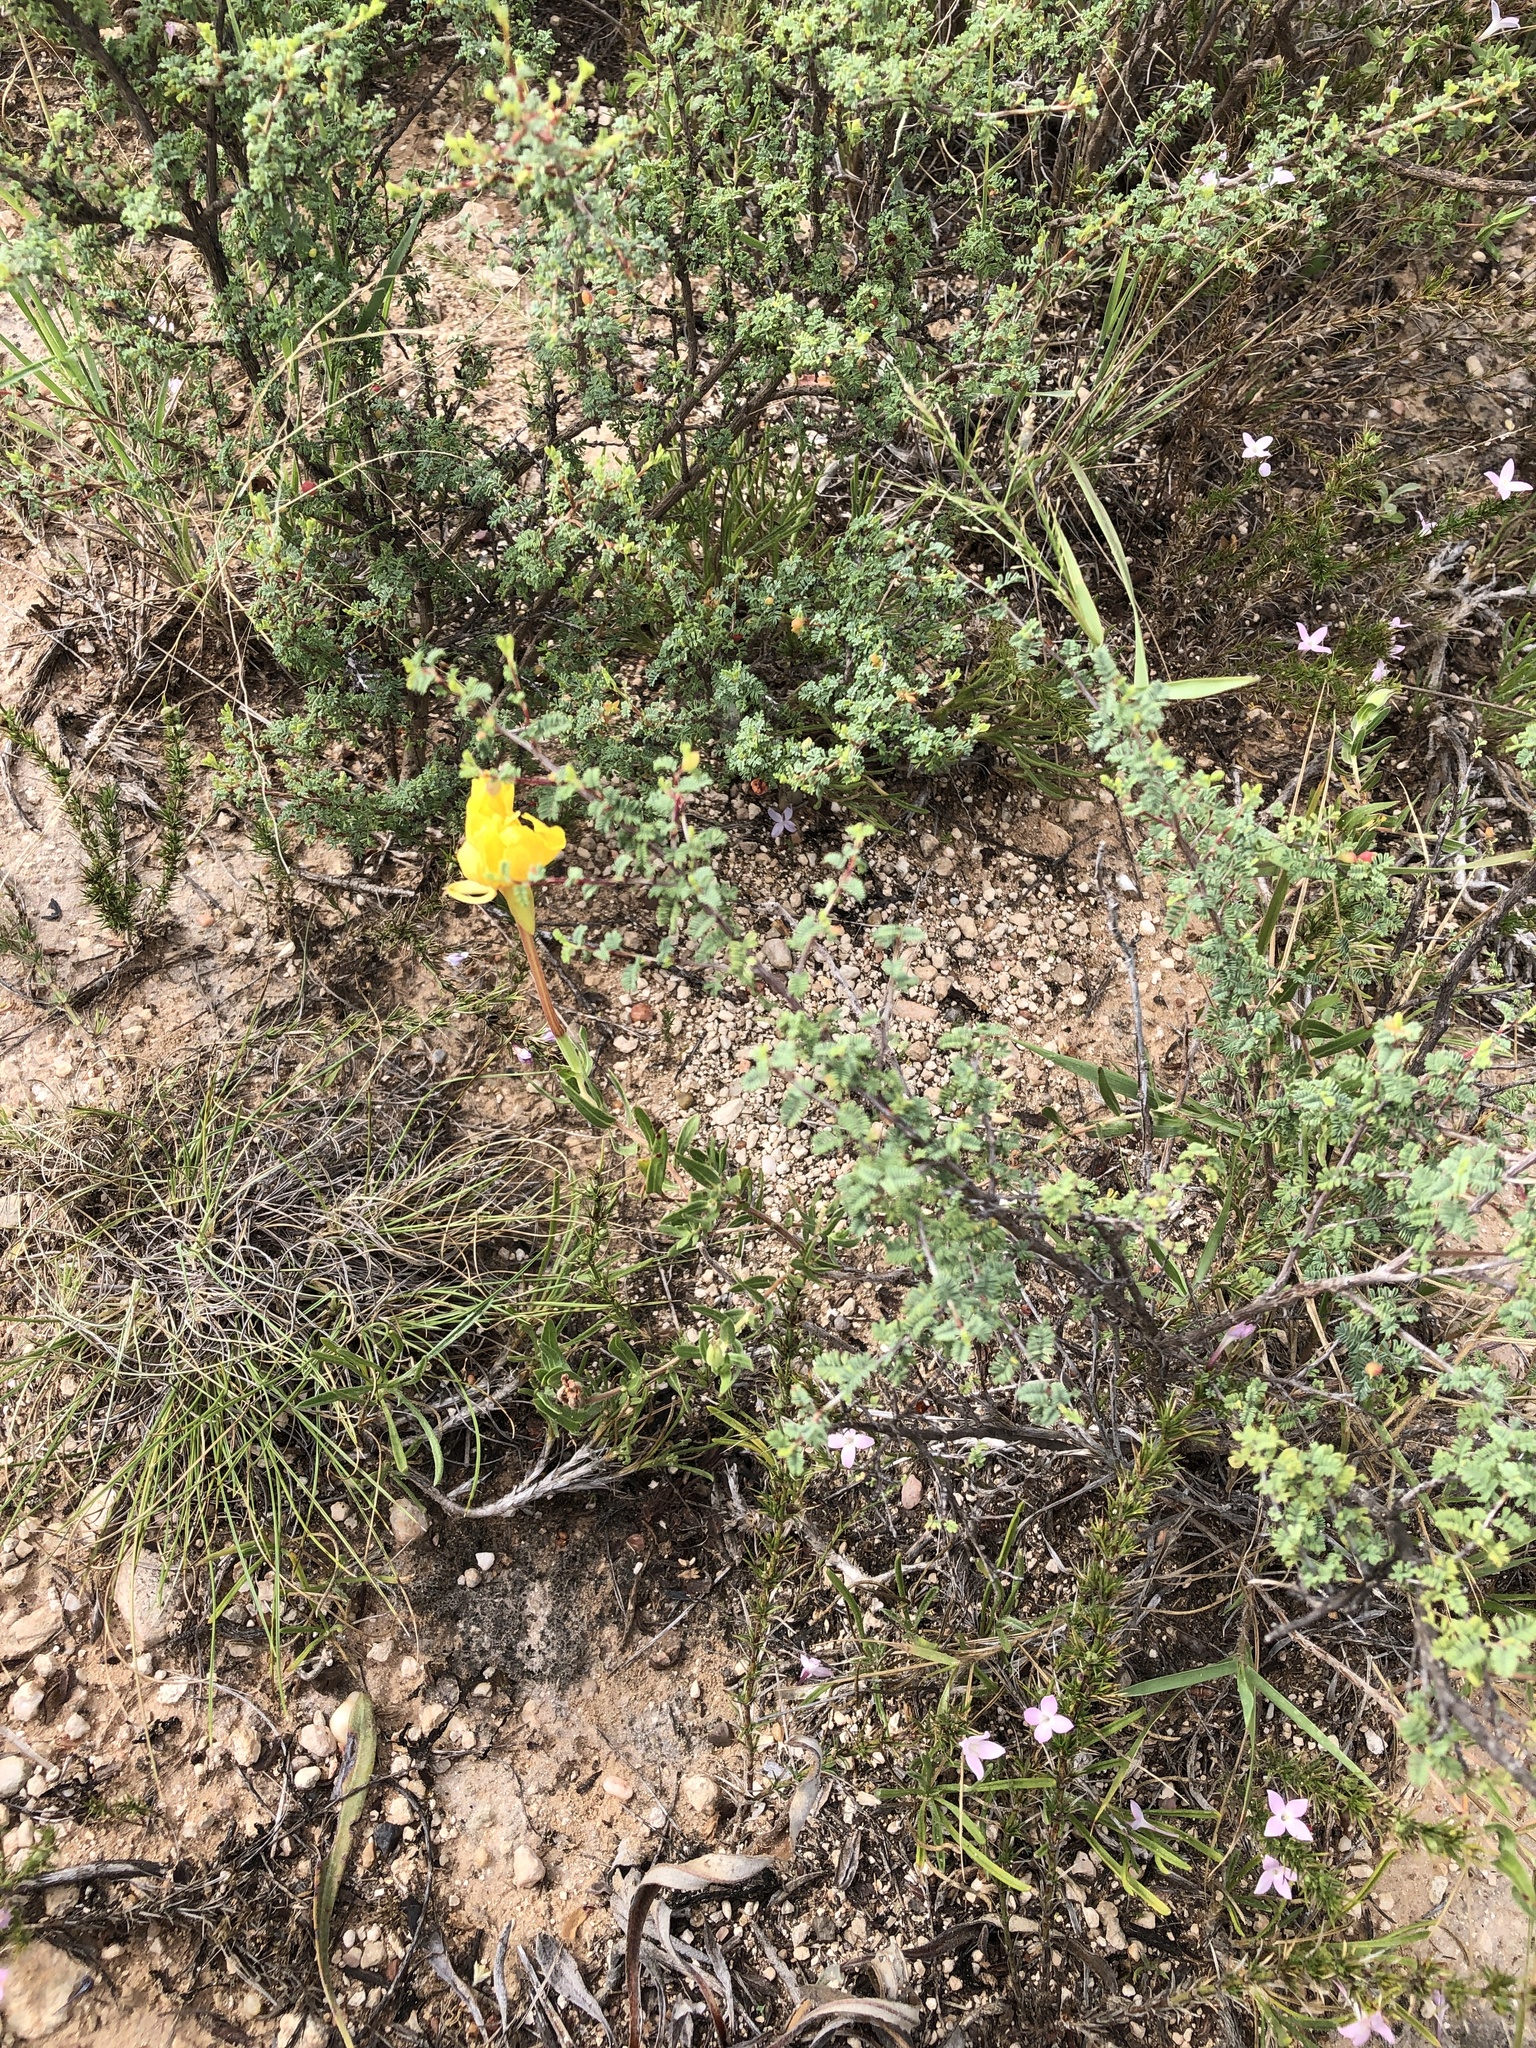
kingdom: Plantae
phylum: Tracheophyta
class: Magnoliopsida
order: Myrtales
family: Onagraceae
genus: Oenothera
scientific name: Oenothera hartwegii
